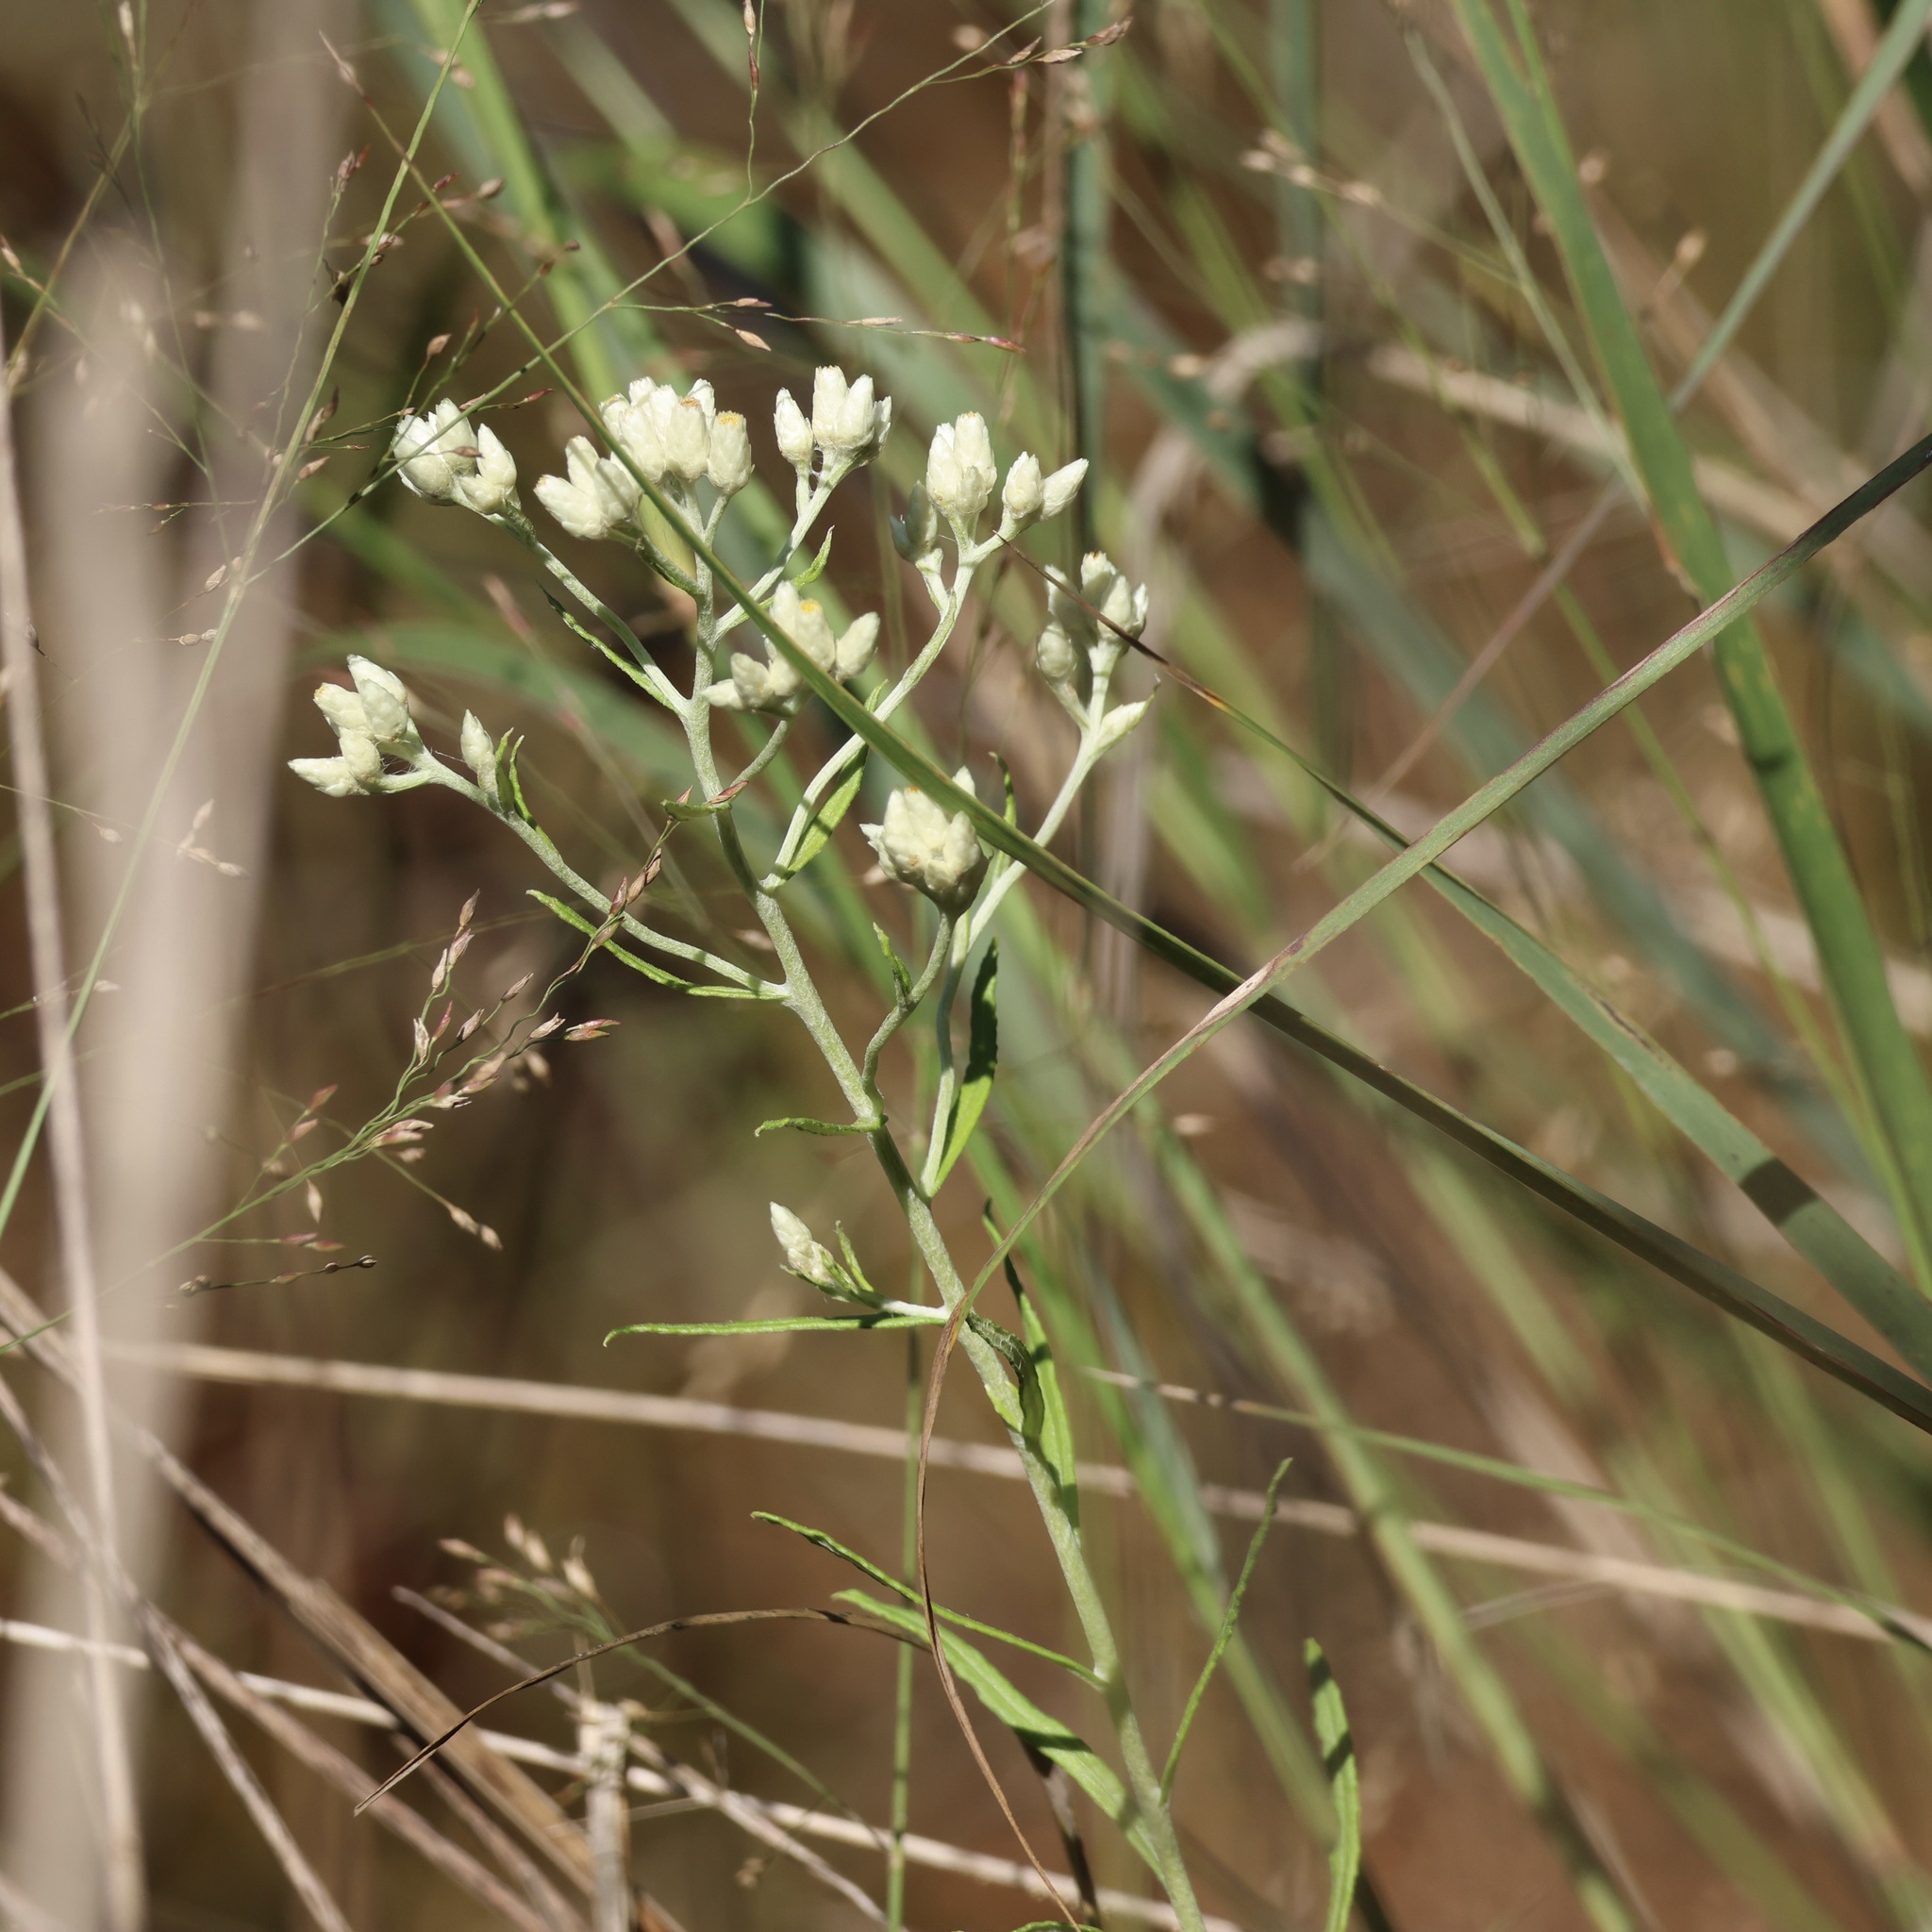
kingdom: Plantae
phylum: Tracheophyta
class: Magnoliopsida
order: Asterales
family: Asteraceae
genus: Pseudognaphalium
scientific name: Pseudognaphalium obtusifolium
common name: Eastern rabbit-tobacco
